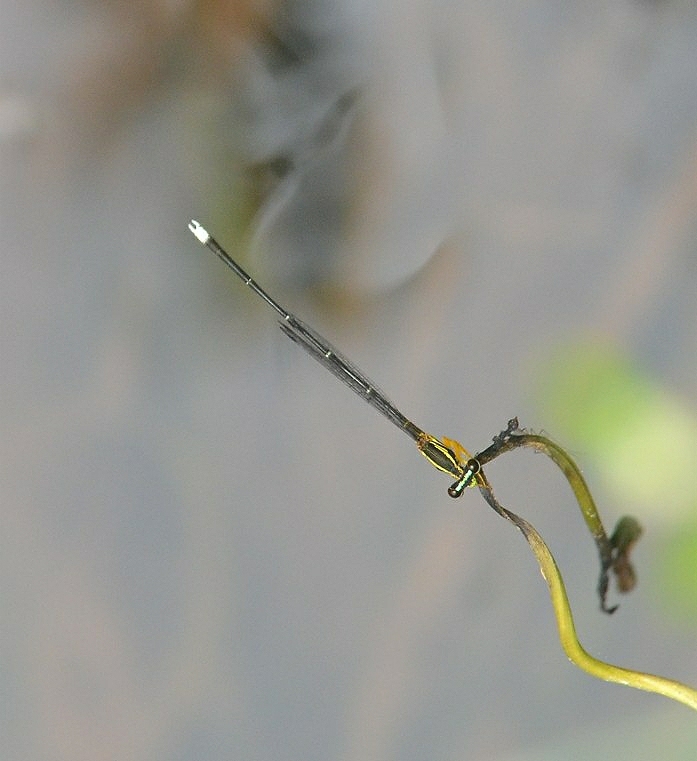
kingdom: Animalia
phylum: Arthropoda
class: Insecta
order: Odonata
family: Platycnemididae
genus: Copera
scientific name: Copera marginipes
